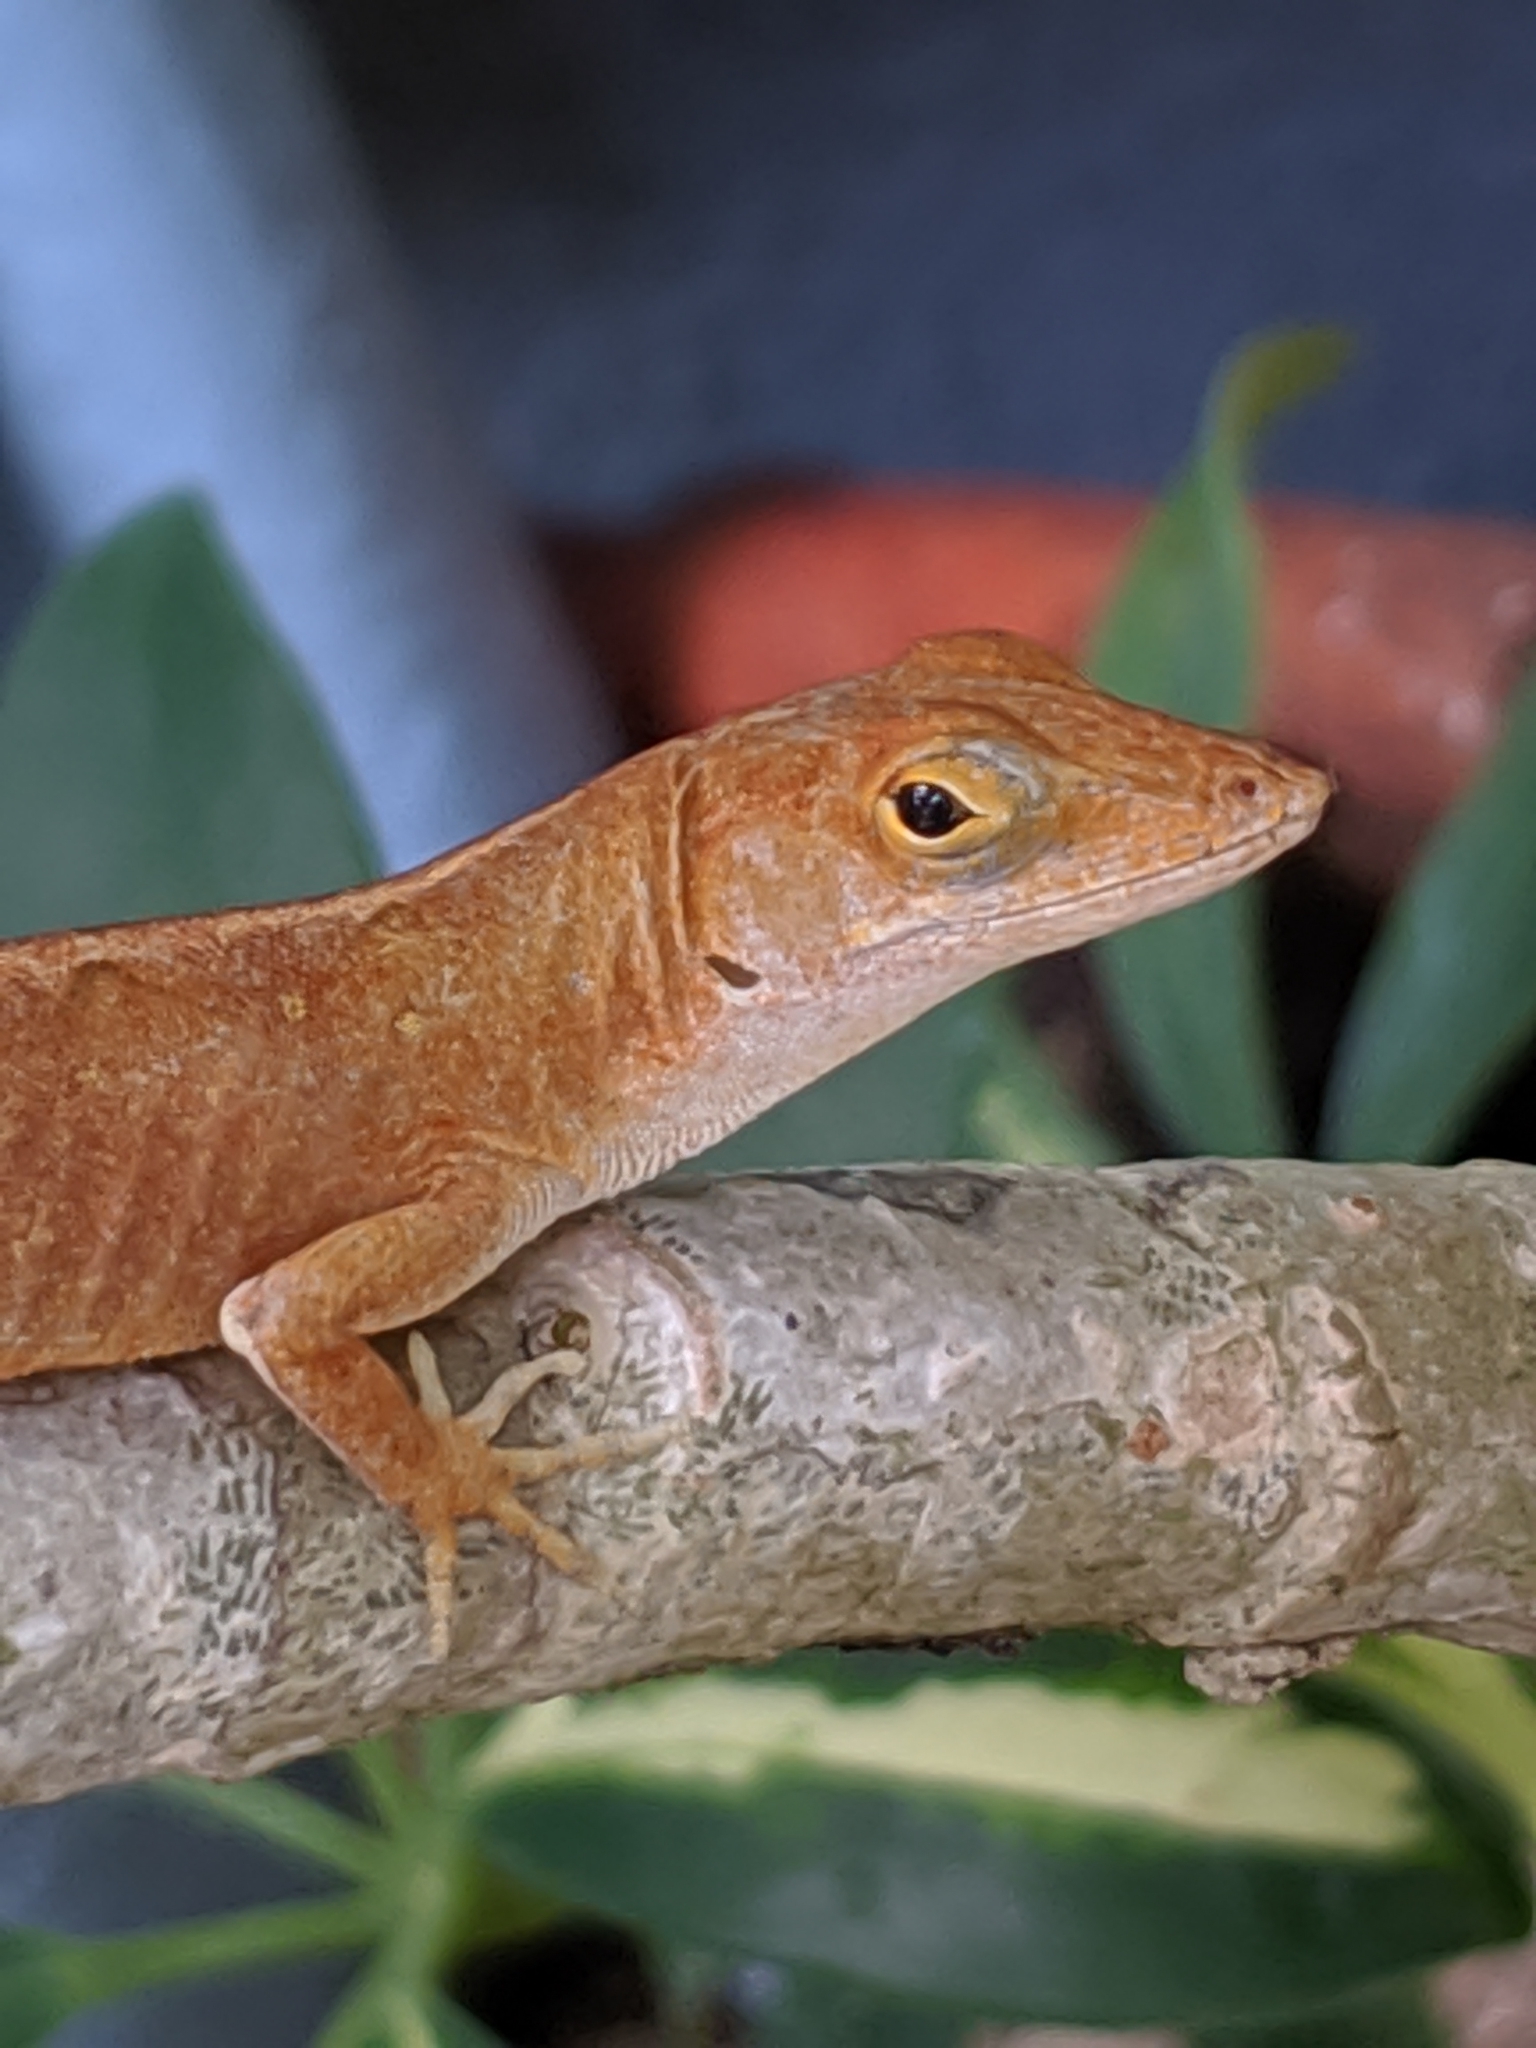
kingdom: Animalia
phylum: Chordata
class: Squamata
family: Dactyloidae
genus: Anolis
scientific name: Anolis sagrei
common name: Brown anole
